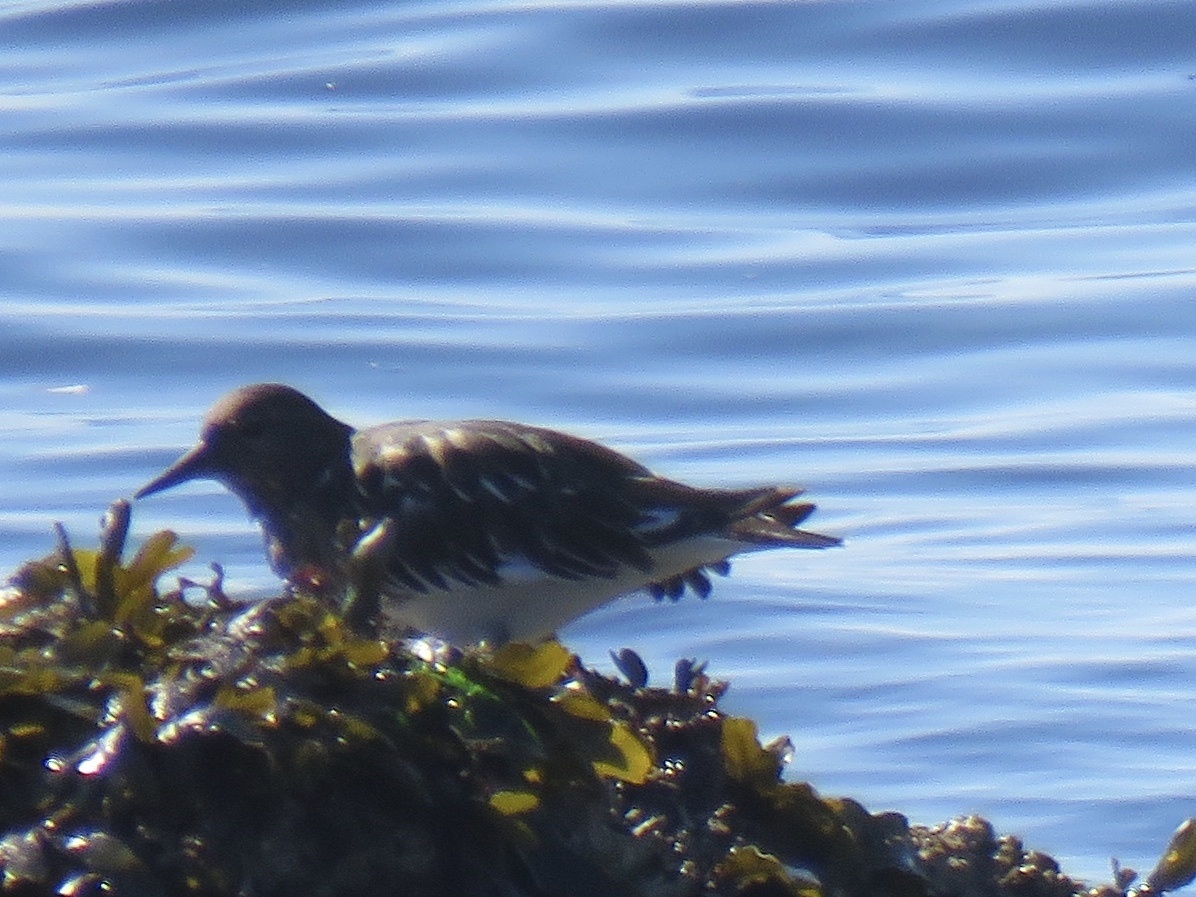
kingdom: Animalia
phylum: Chordata
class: Aves
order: Charadriiformes
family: Scolopacidae
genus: Arenaria
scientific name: Arenaria melanocephala
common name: Black turnstone
